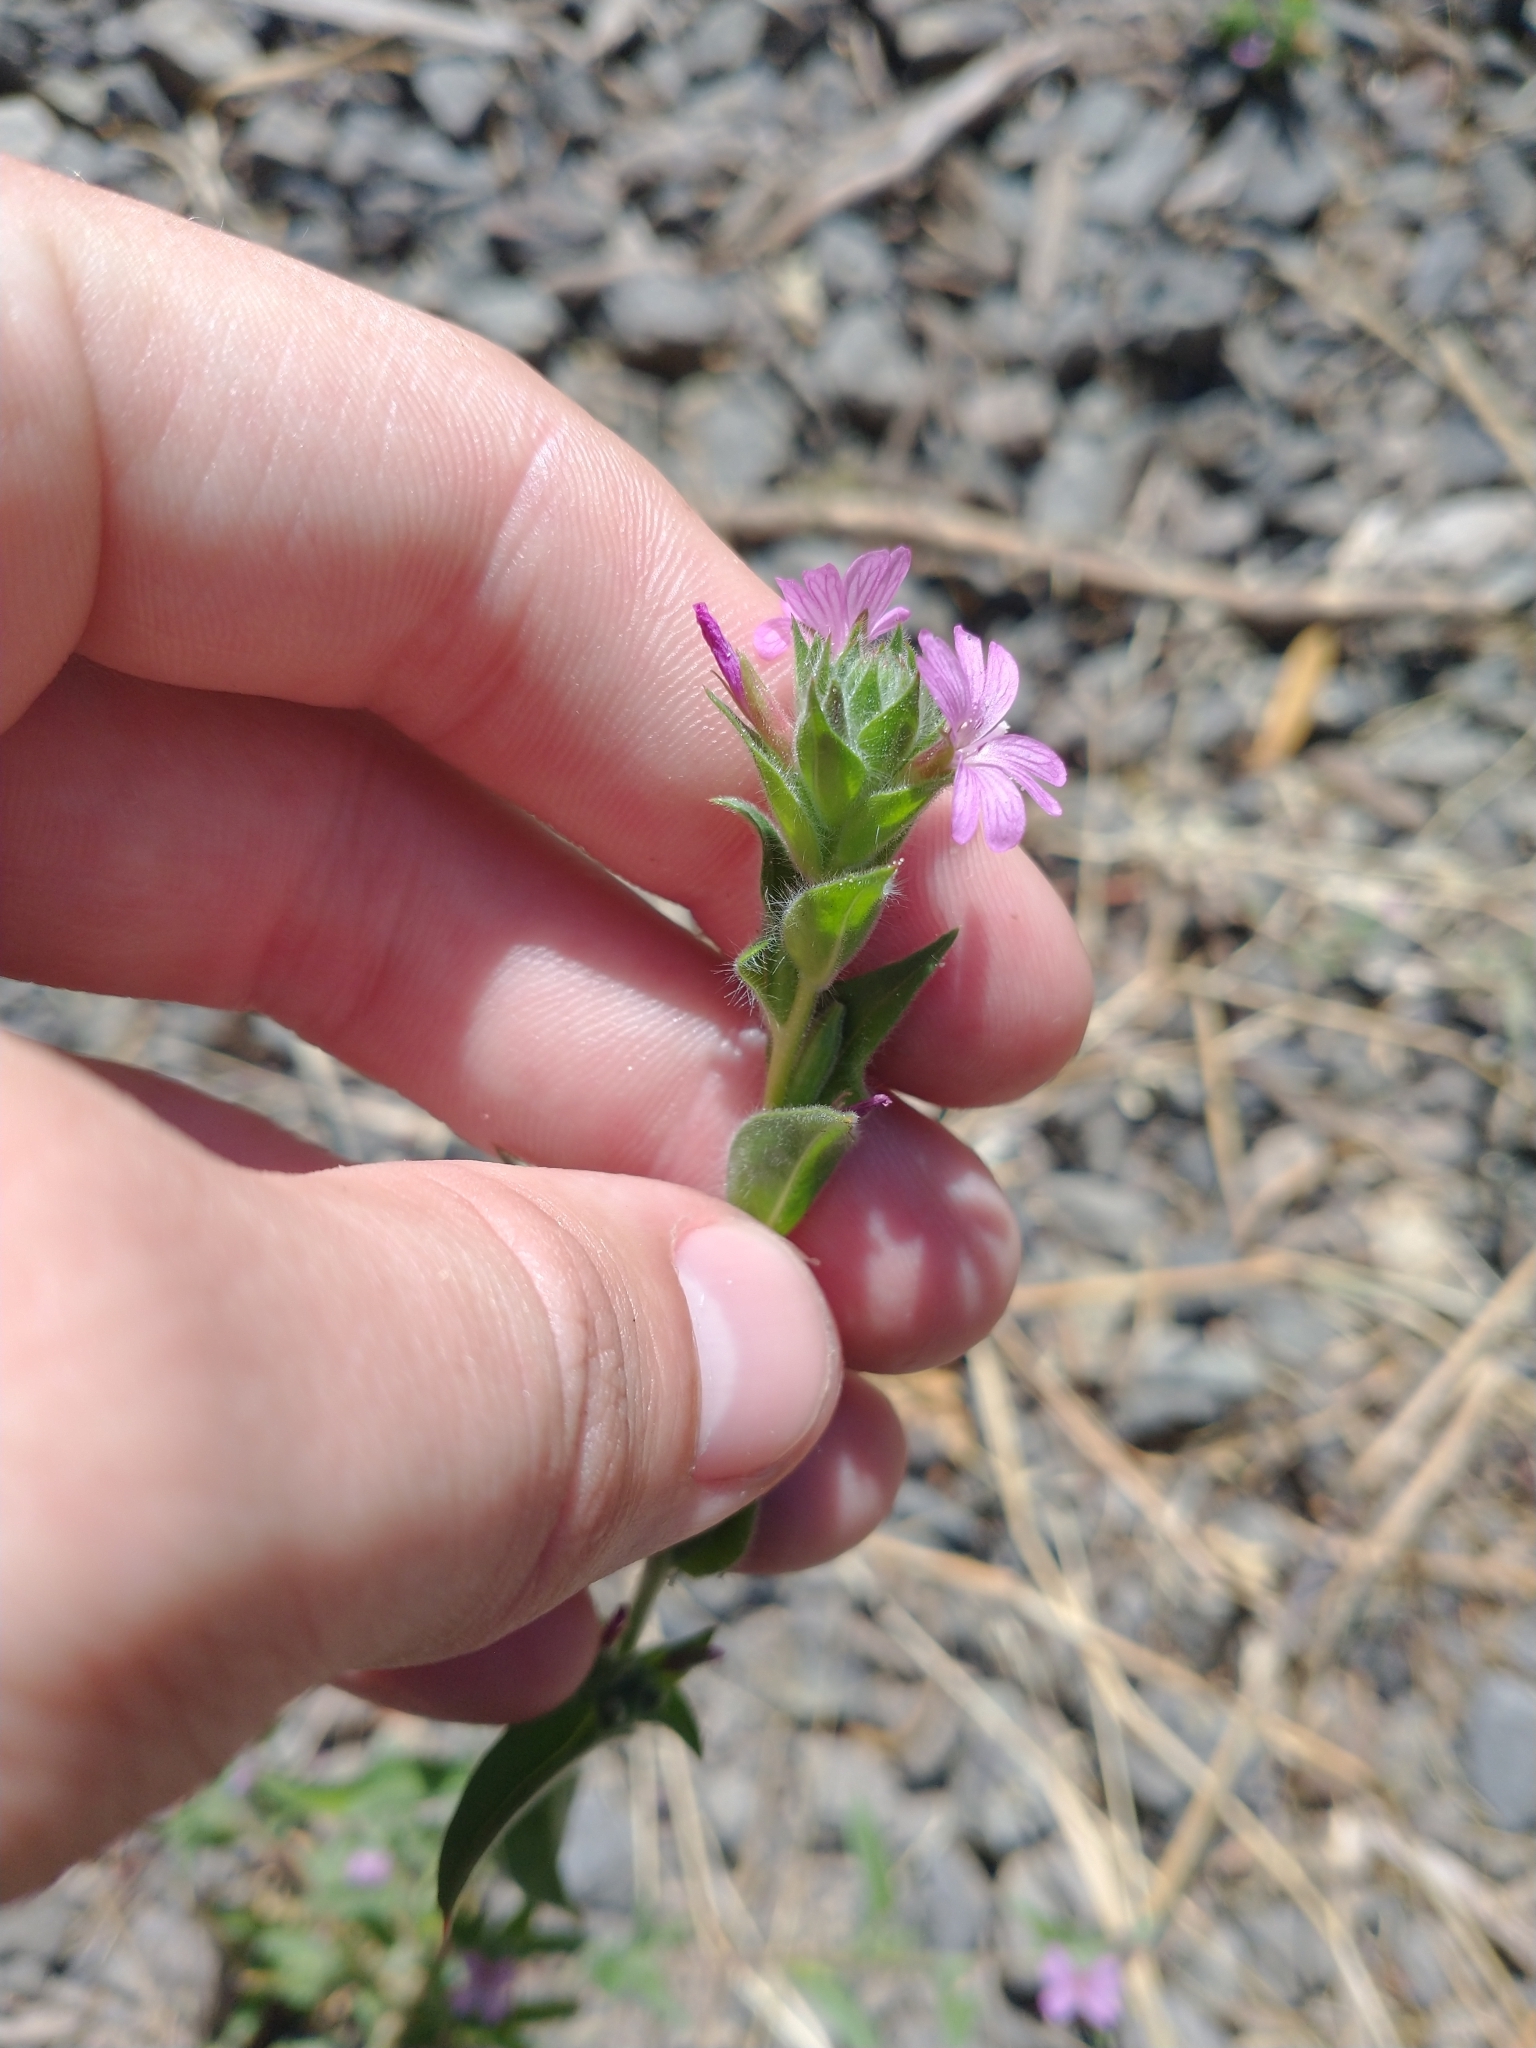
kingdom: Plantae
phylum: Tracheophyta
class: Magnoliopsida
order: Myrtales
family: Onagraceae
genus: Epilobium
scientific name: Epilobium densiflorum
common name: Dense spike-primrose
